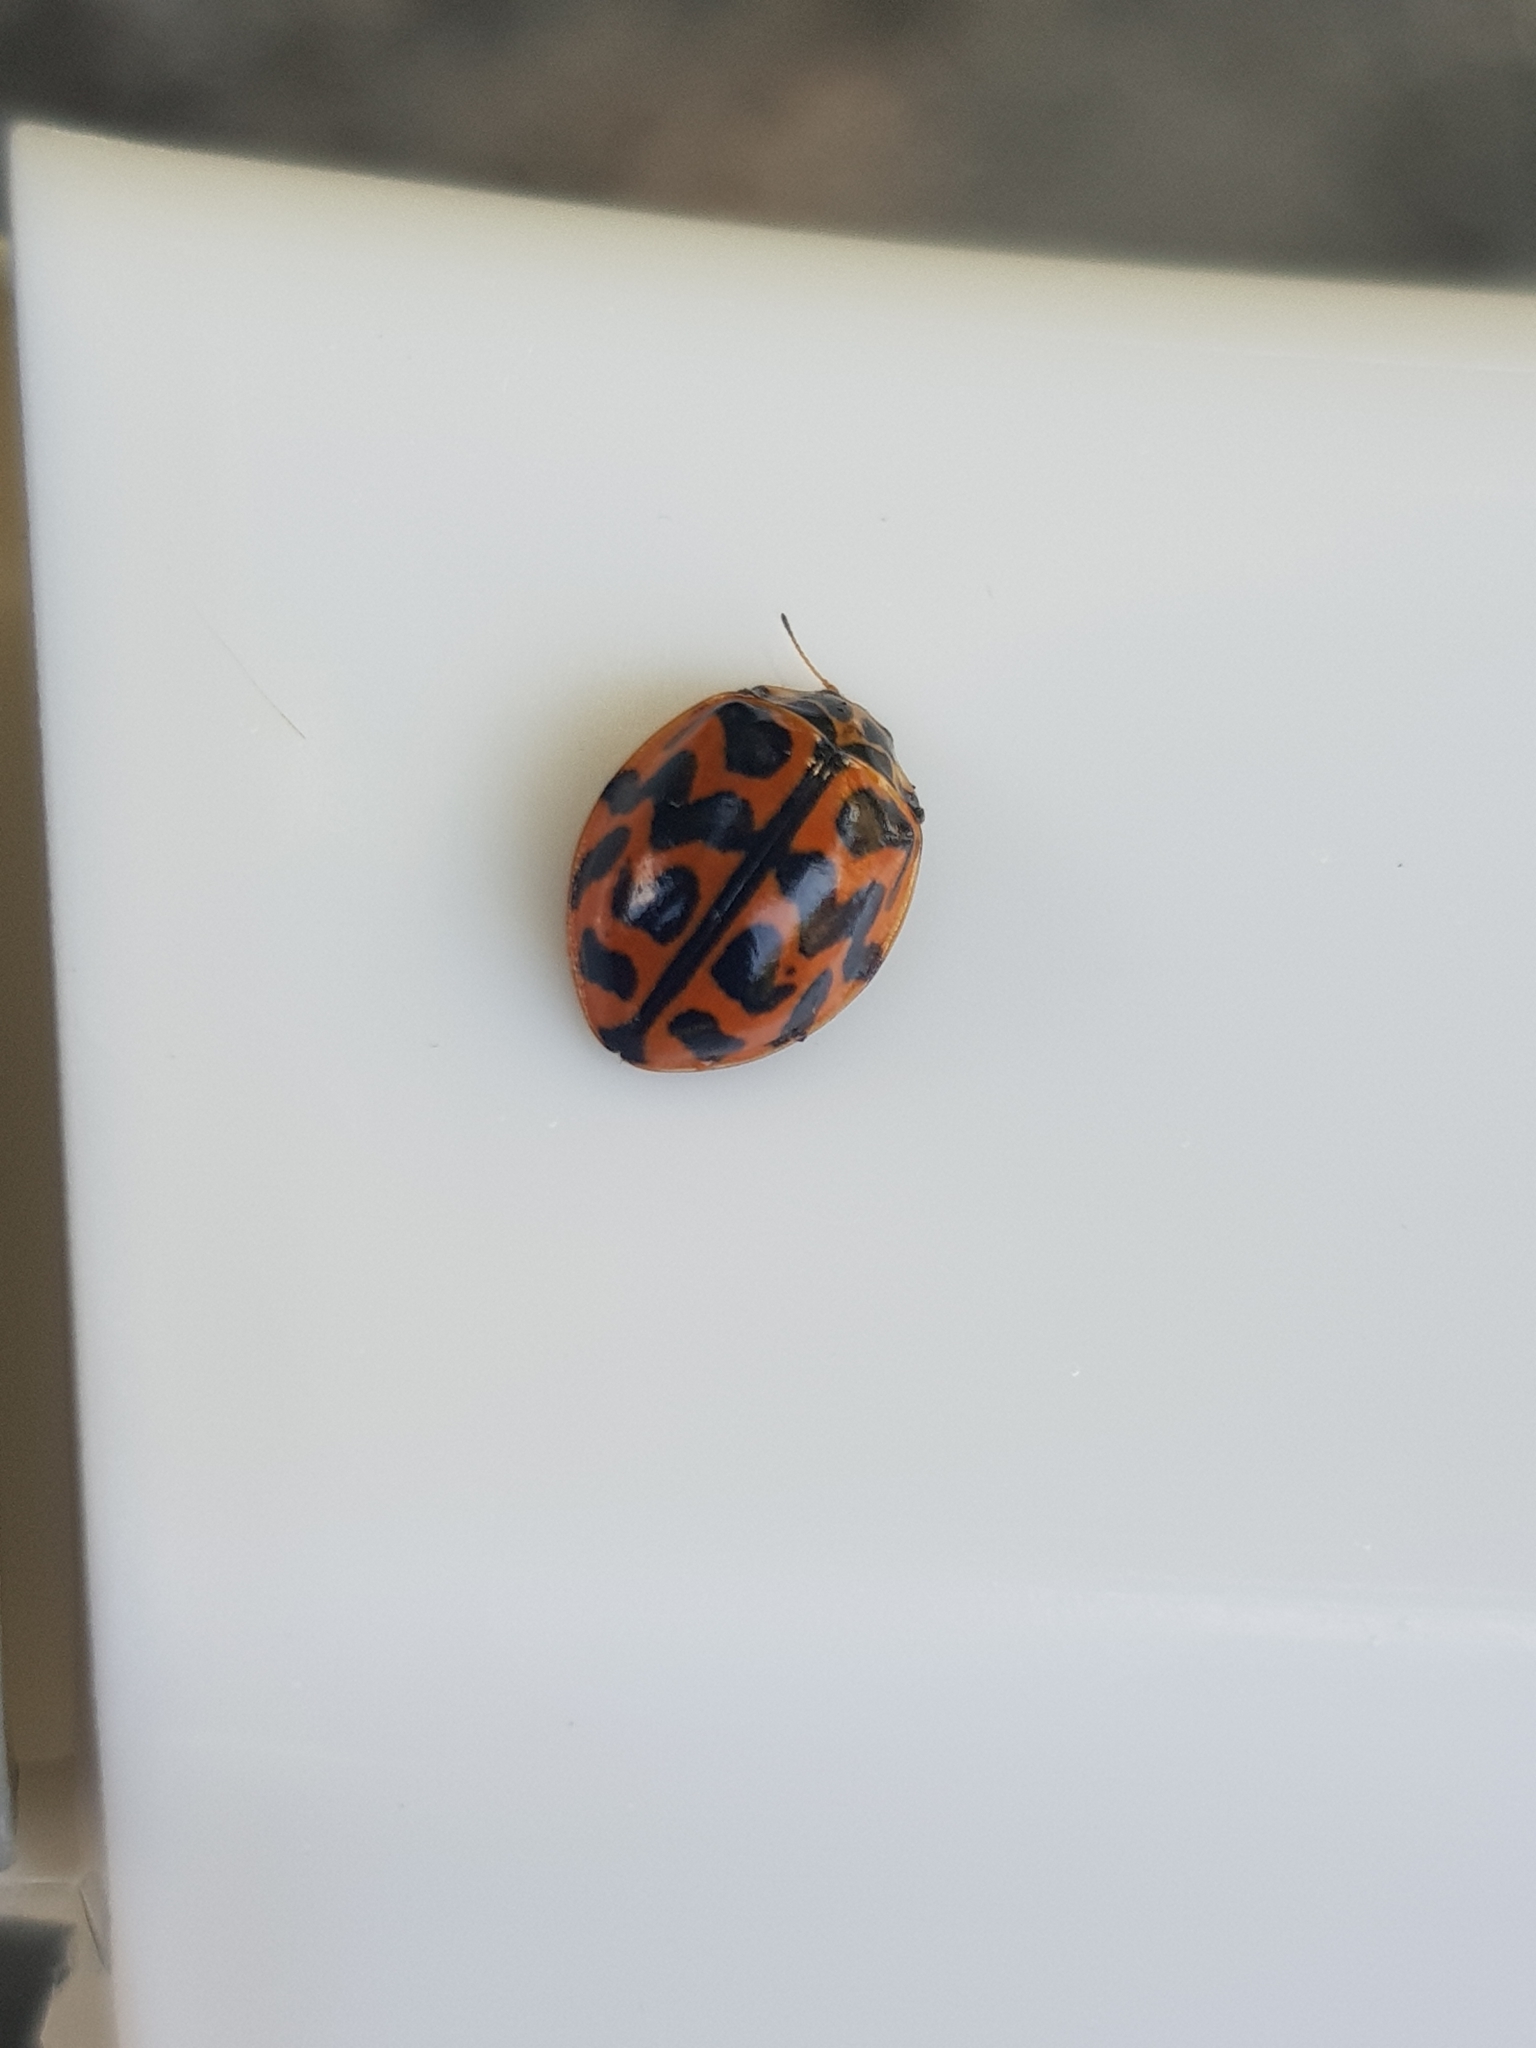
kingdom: Animalia
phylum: Arthropoda
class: Insecta
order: Coleoptera
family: Coccinellidae
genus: Cleobora
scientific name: Cleobora
